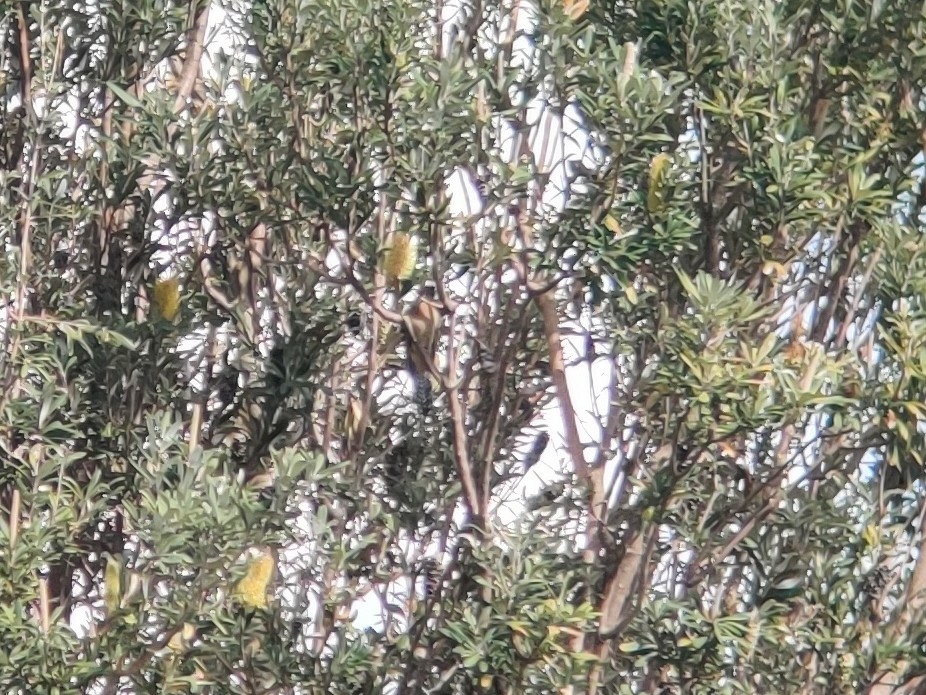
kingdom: Animalia
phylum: Chordata
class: Aves
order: Cuculiformes
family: Cuculidae
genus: Cacomantis
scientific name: Cacomantis flabelliformis
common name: Fan-tailed cuckoo
